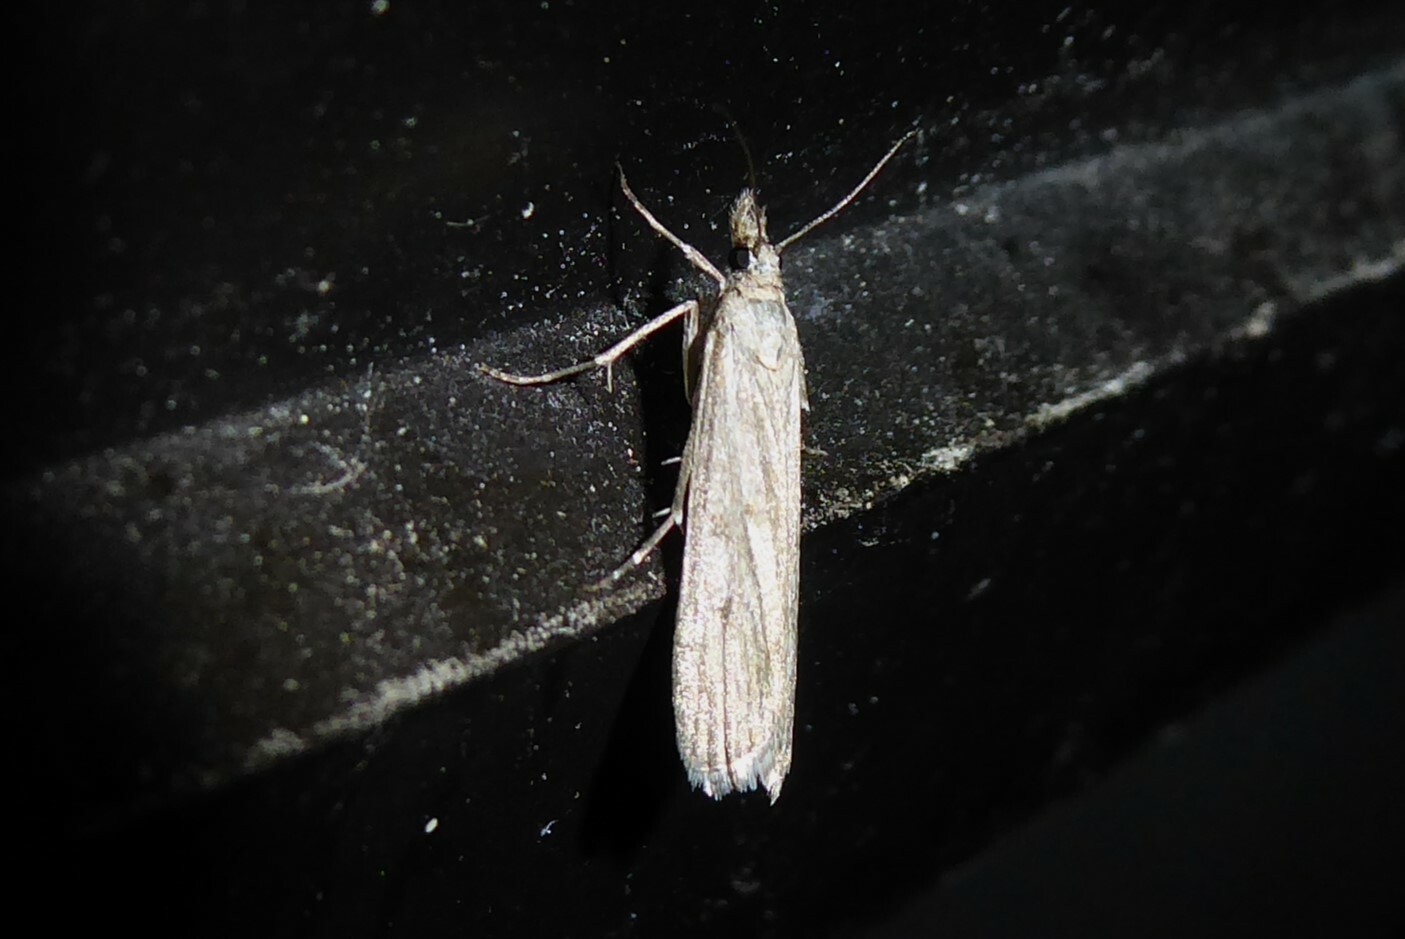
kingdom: Animalia
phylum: Arthropoda
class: Insecta
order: Lepidoptera
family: Crambidae
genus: Eudonia
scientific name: Eudonia leptalea
